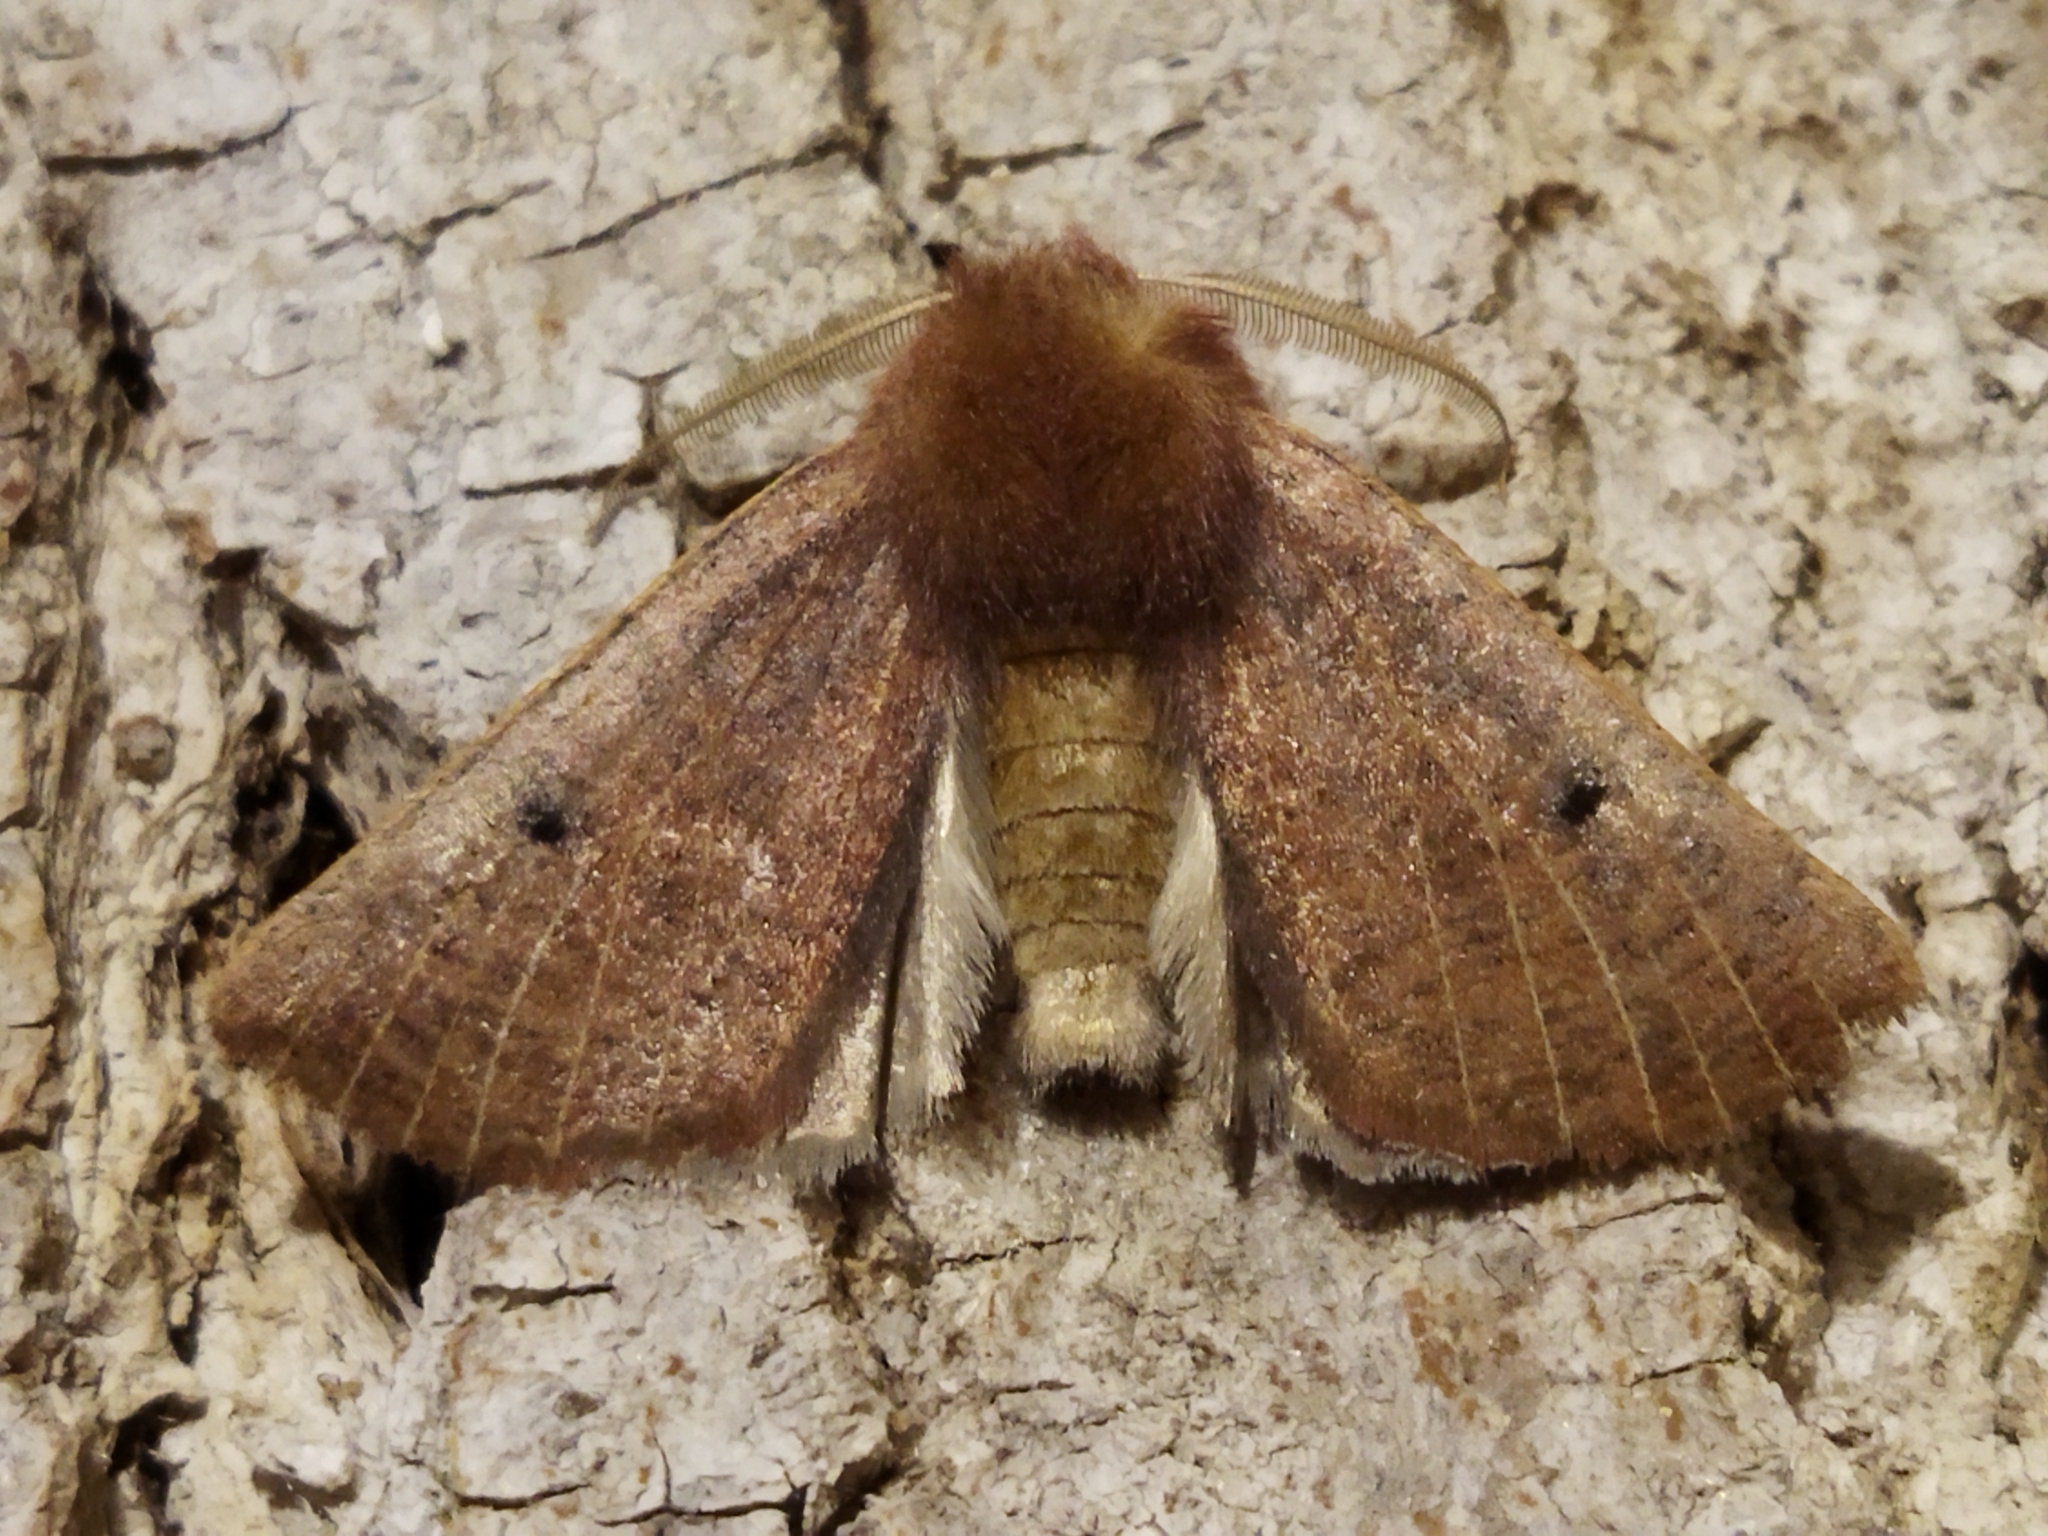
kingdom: Animalia
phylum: Arthropoda
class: Insecta
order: Lepidoptera
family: Geometridae
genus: Dasycorsa
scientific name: Dasycorsa modesta
